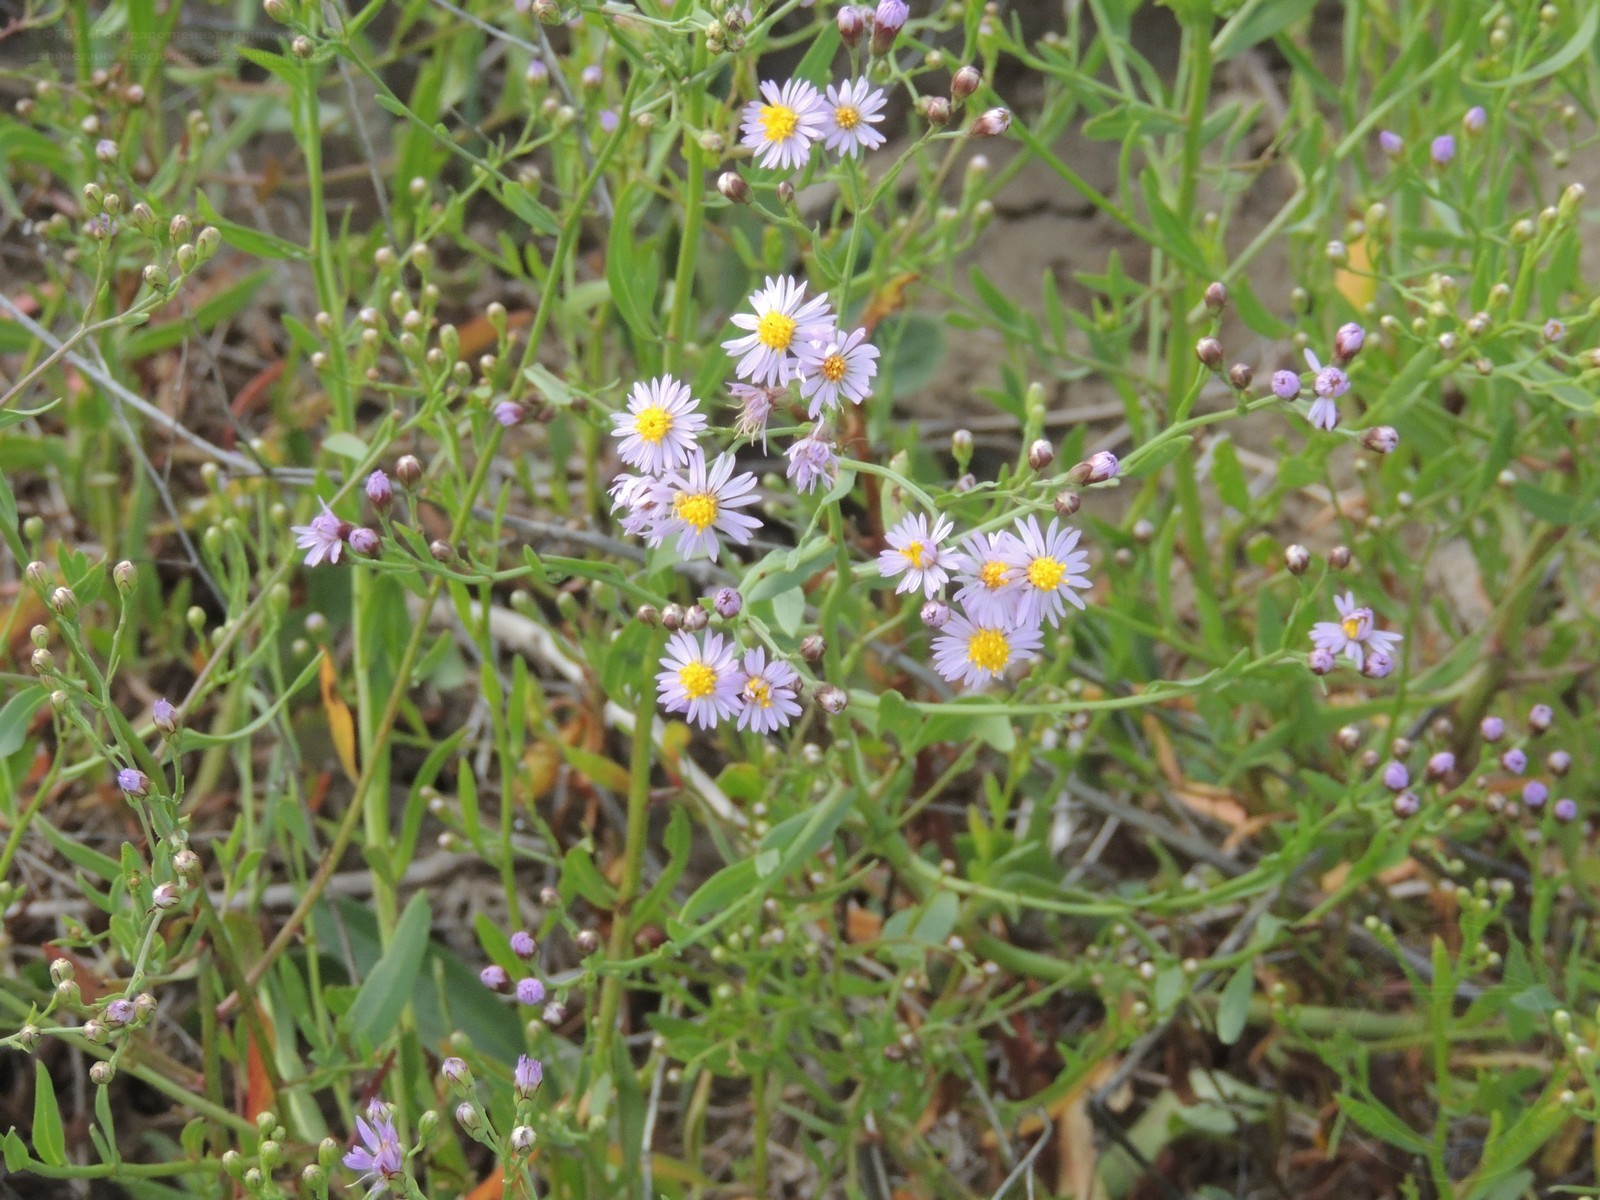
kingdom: Plantae
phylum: Tracheophyta
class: Magnoliopsida
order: Asterales
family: Asteraceae
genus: Tripolium
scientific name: Tripolium pannonicum
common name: Sea aster
